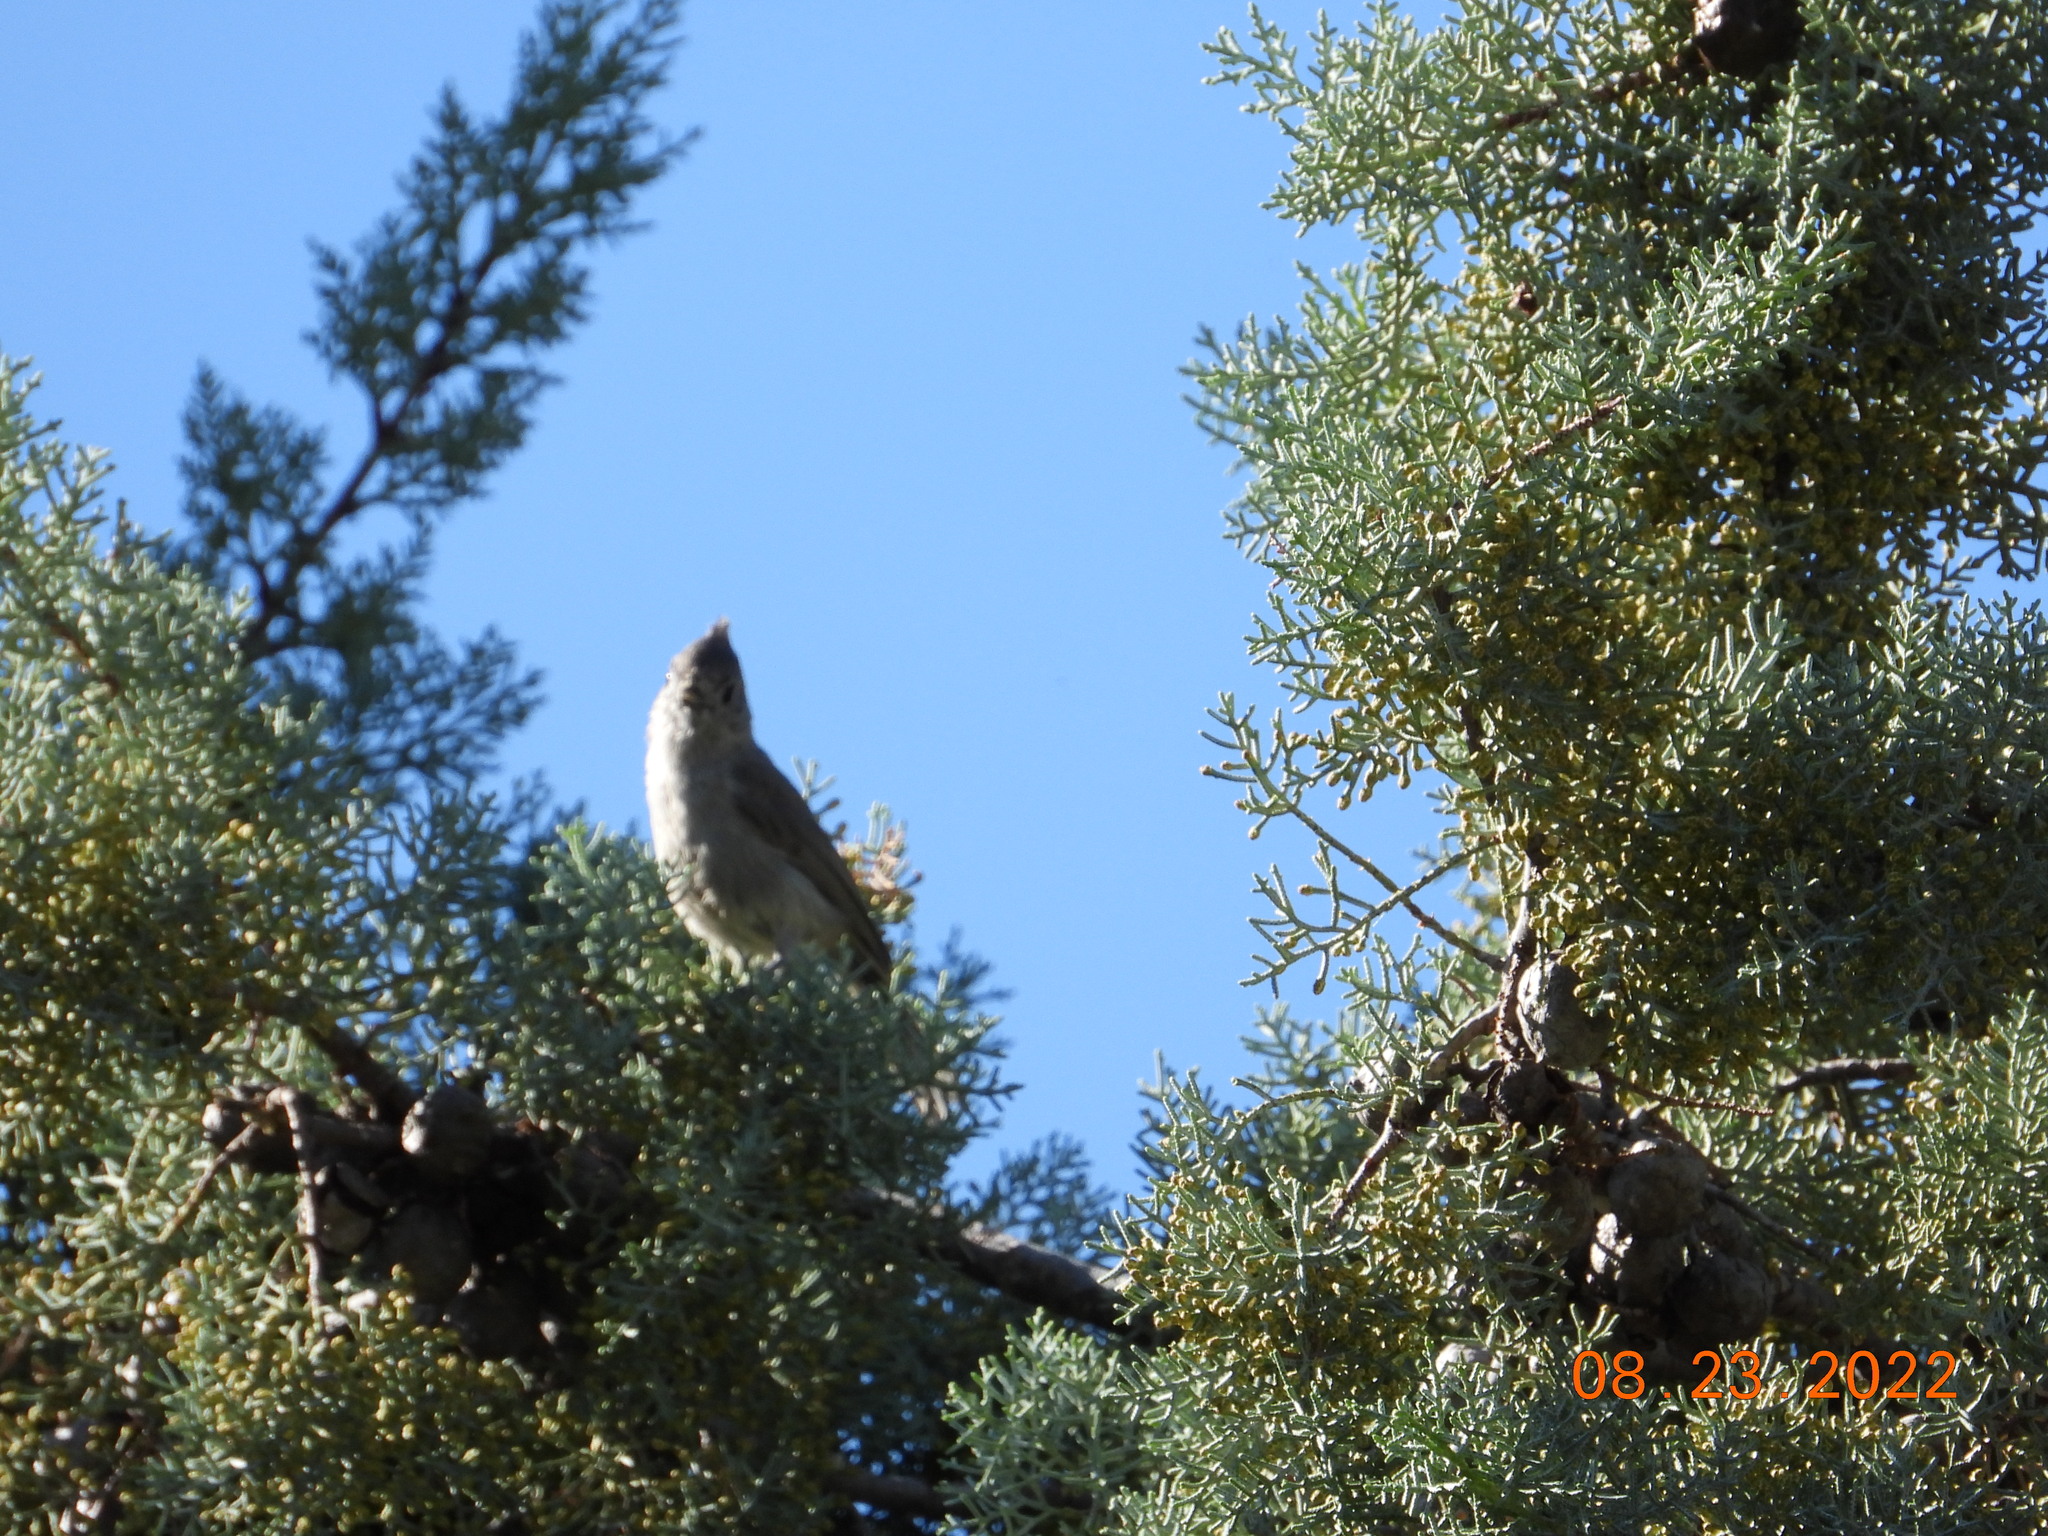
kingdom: Animalia
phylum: Chordata
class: Aves
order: Passeriformes
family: Paridae
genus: Baeolophus
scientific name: Baeolophus ridgwayi
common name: Juniper titmouse
